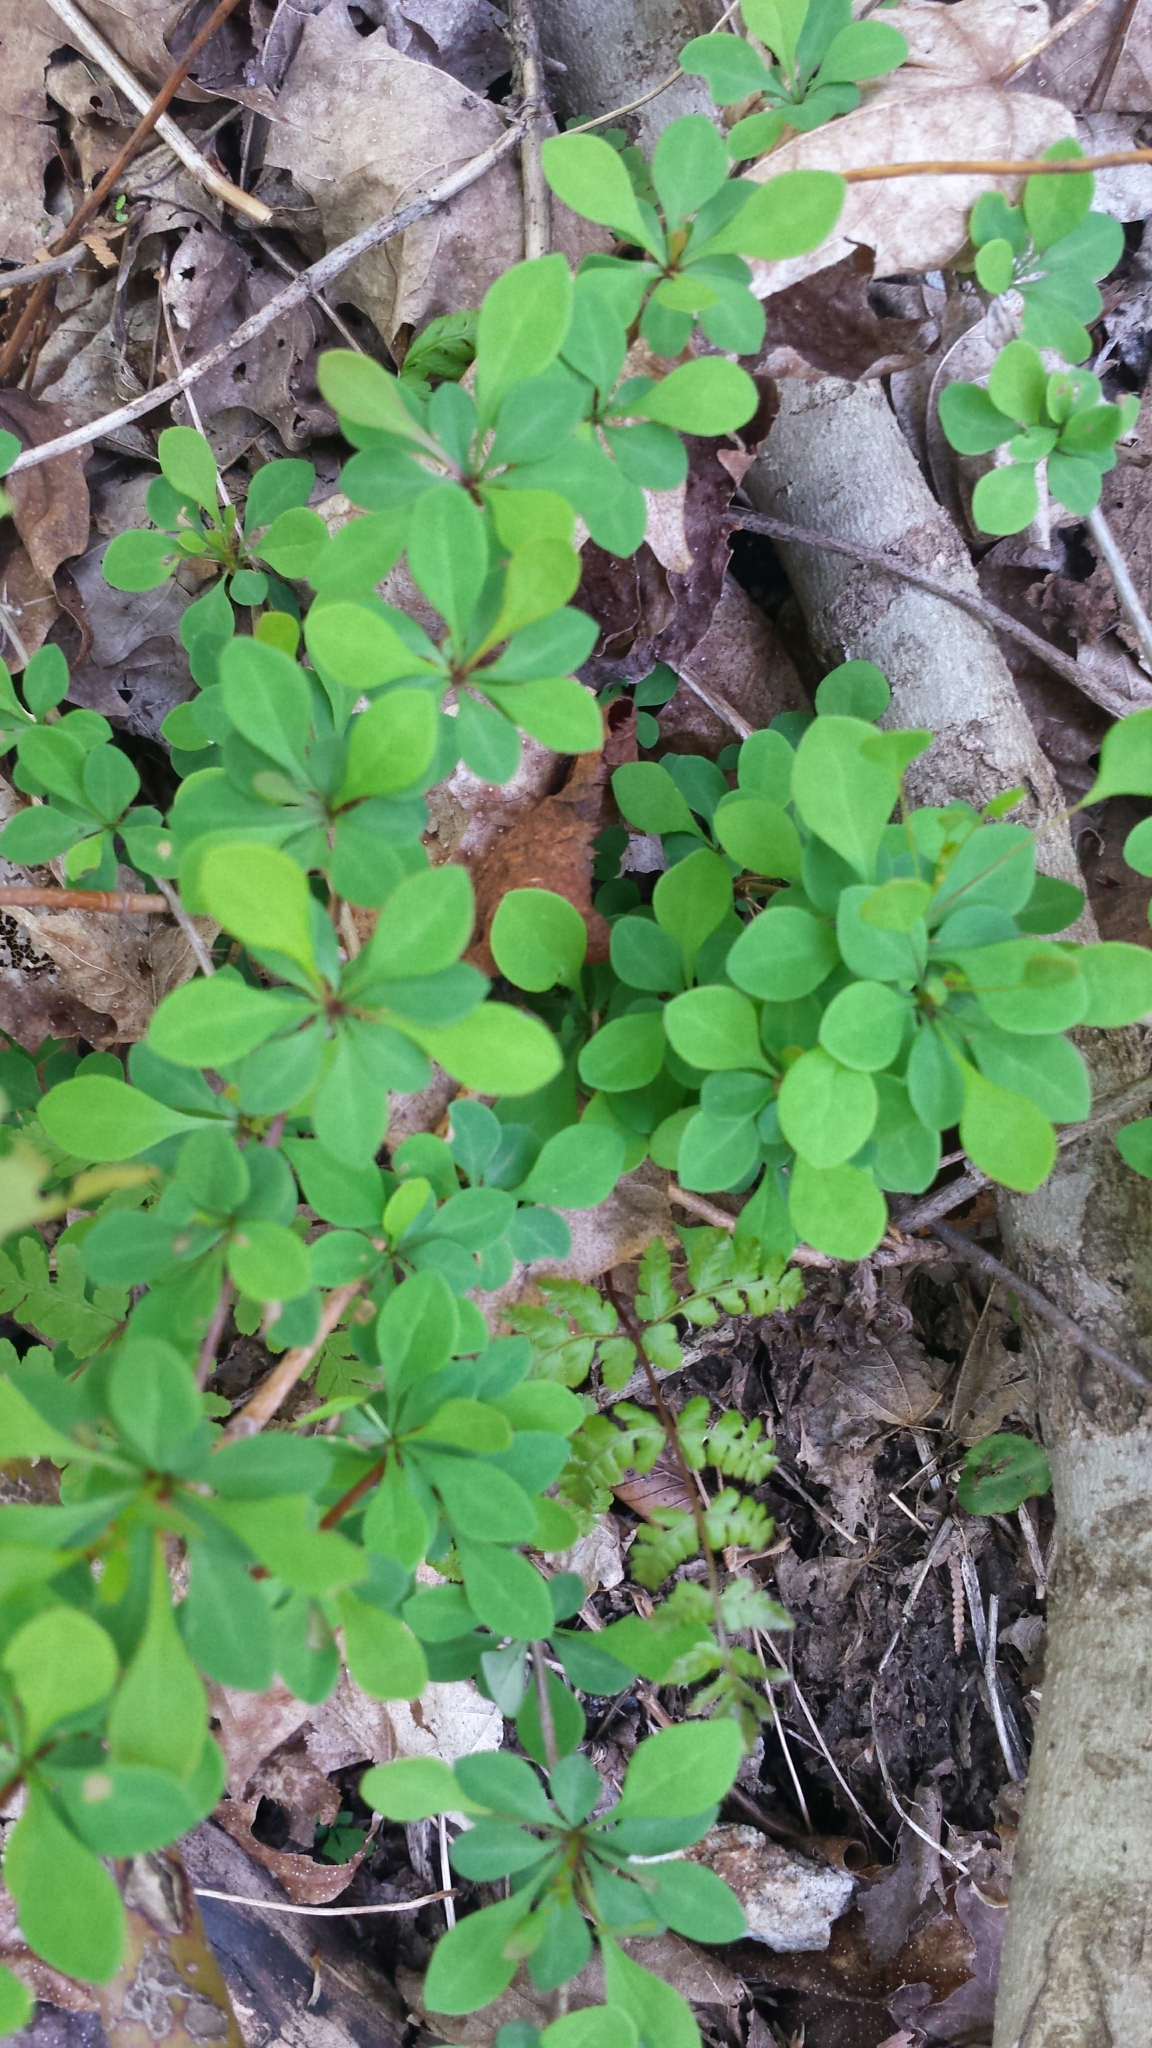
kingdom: Plantae
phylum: Tracheophyta
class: Magnoliopsida
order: Ranunculales
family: Berberidaceae
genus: Berberis
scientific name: Berberis thunbergii
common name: Japanese barberry
